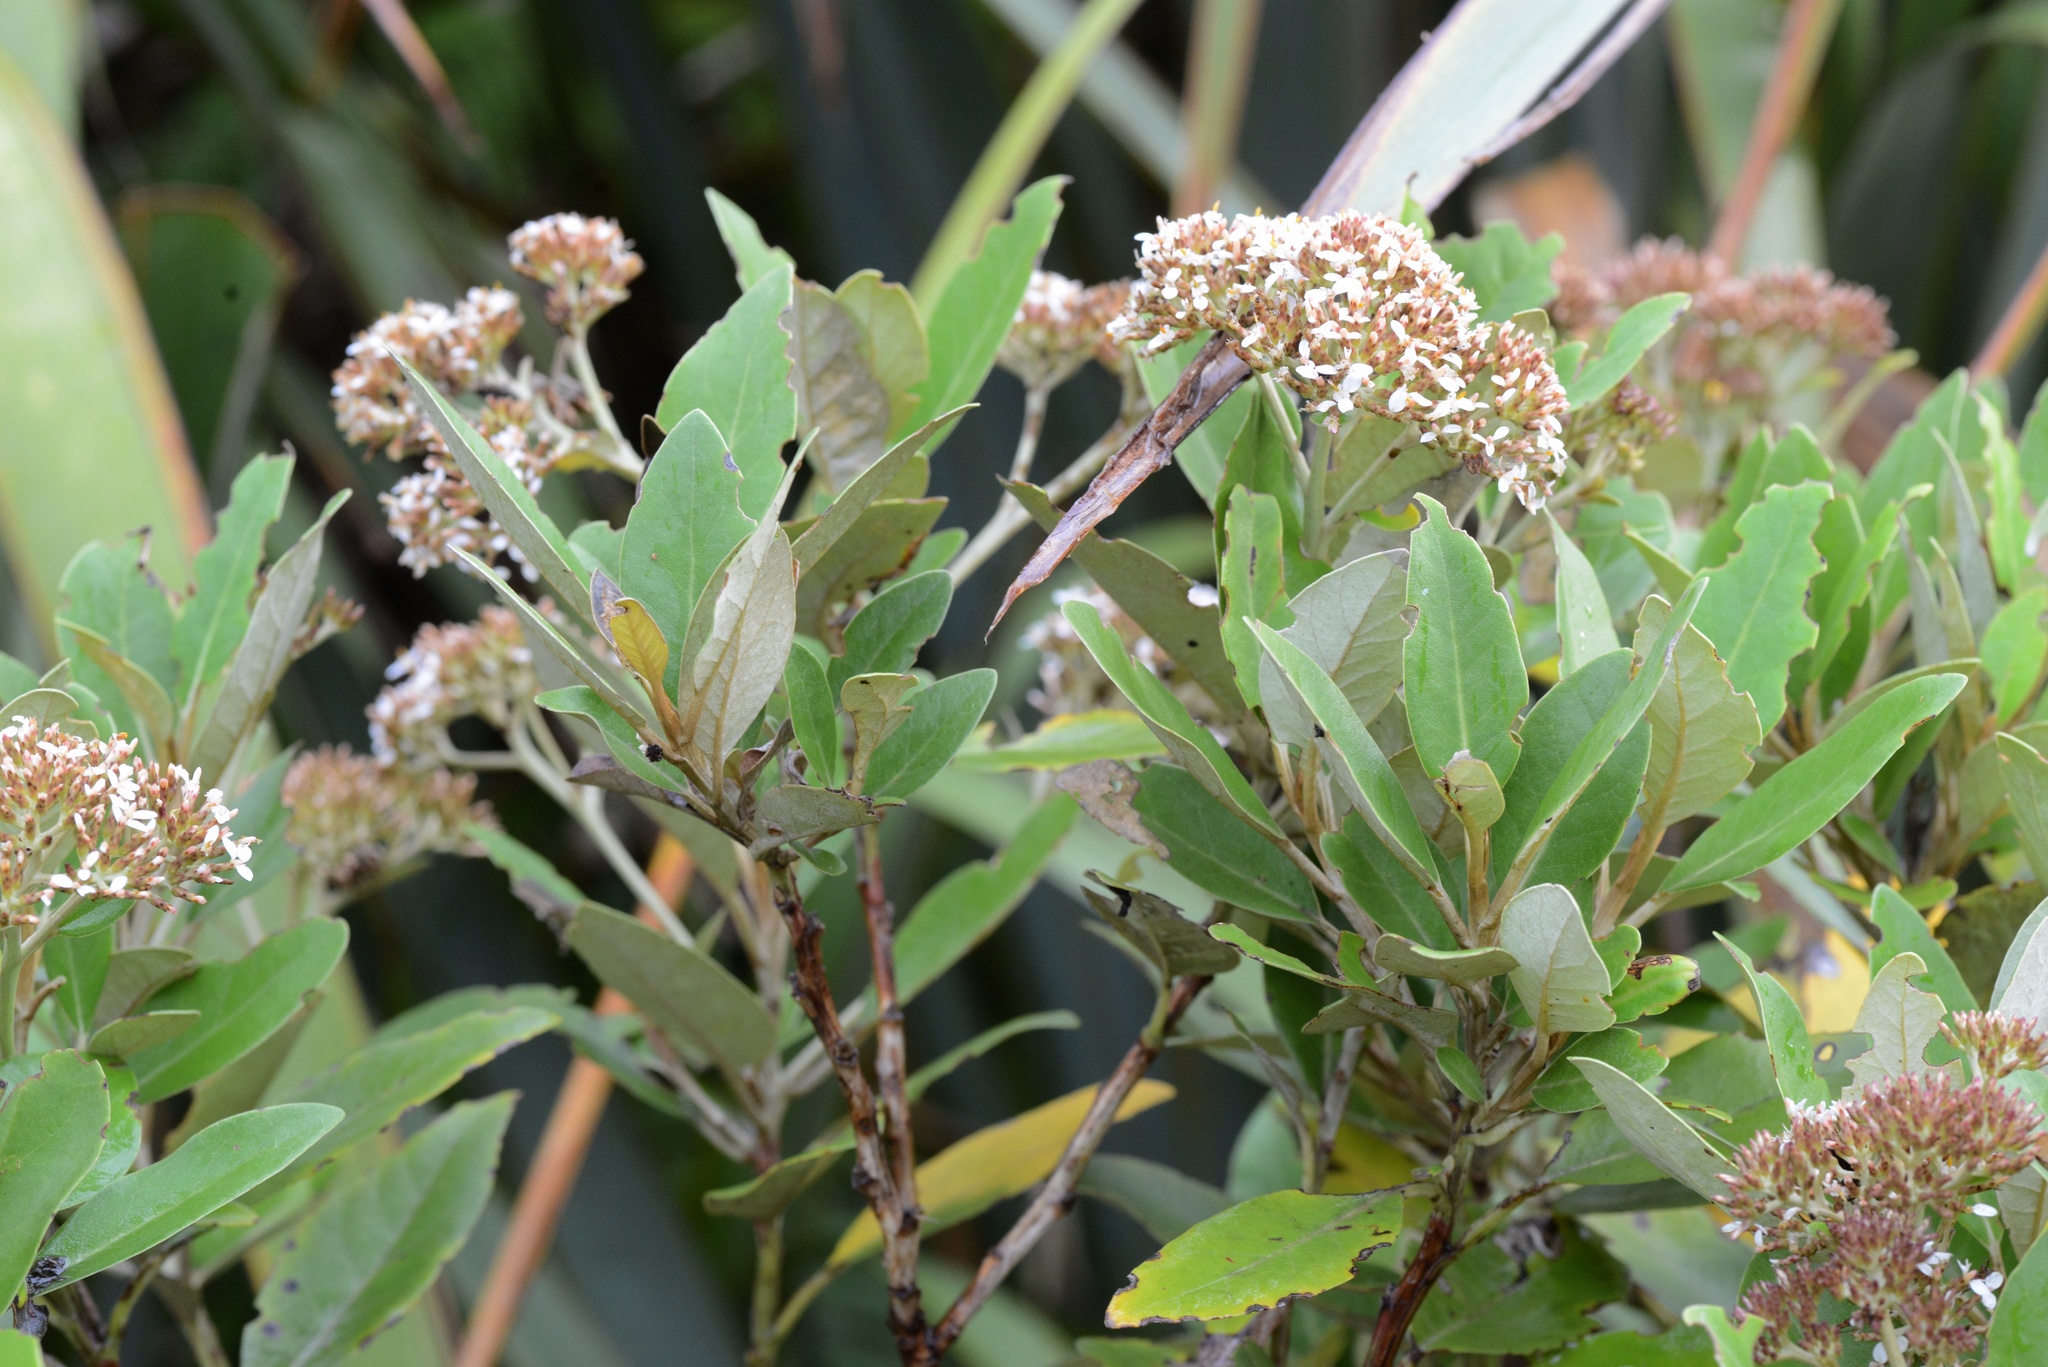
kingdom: Plantae
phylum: Tracheophyta
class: Magnoliopsida
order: Asterales
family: Asteraceae
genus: Olearia
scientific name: Olearia
